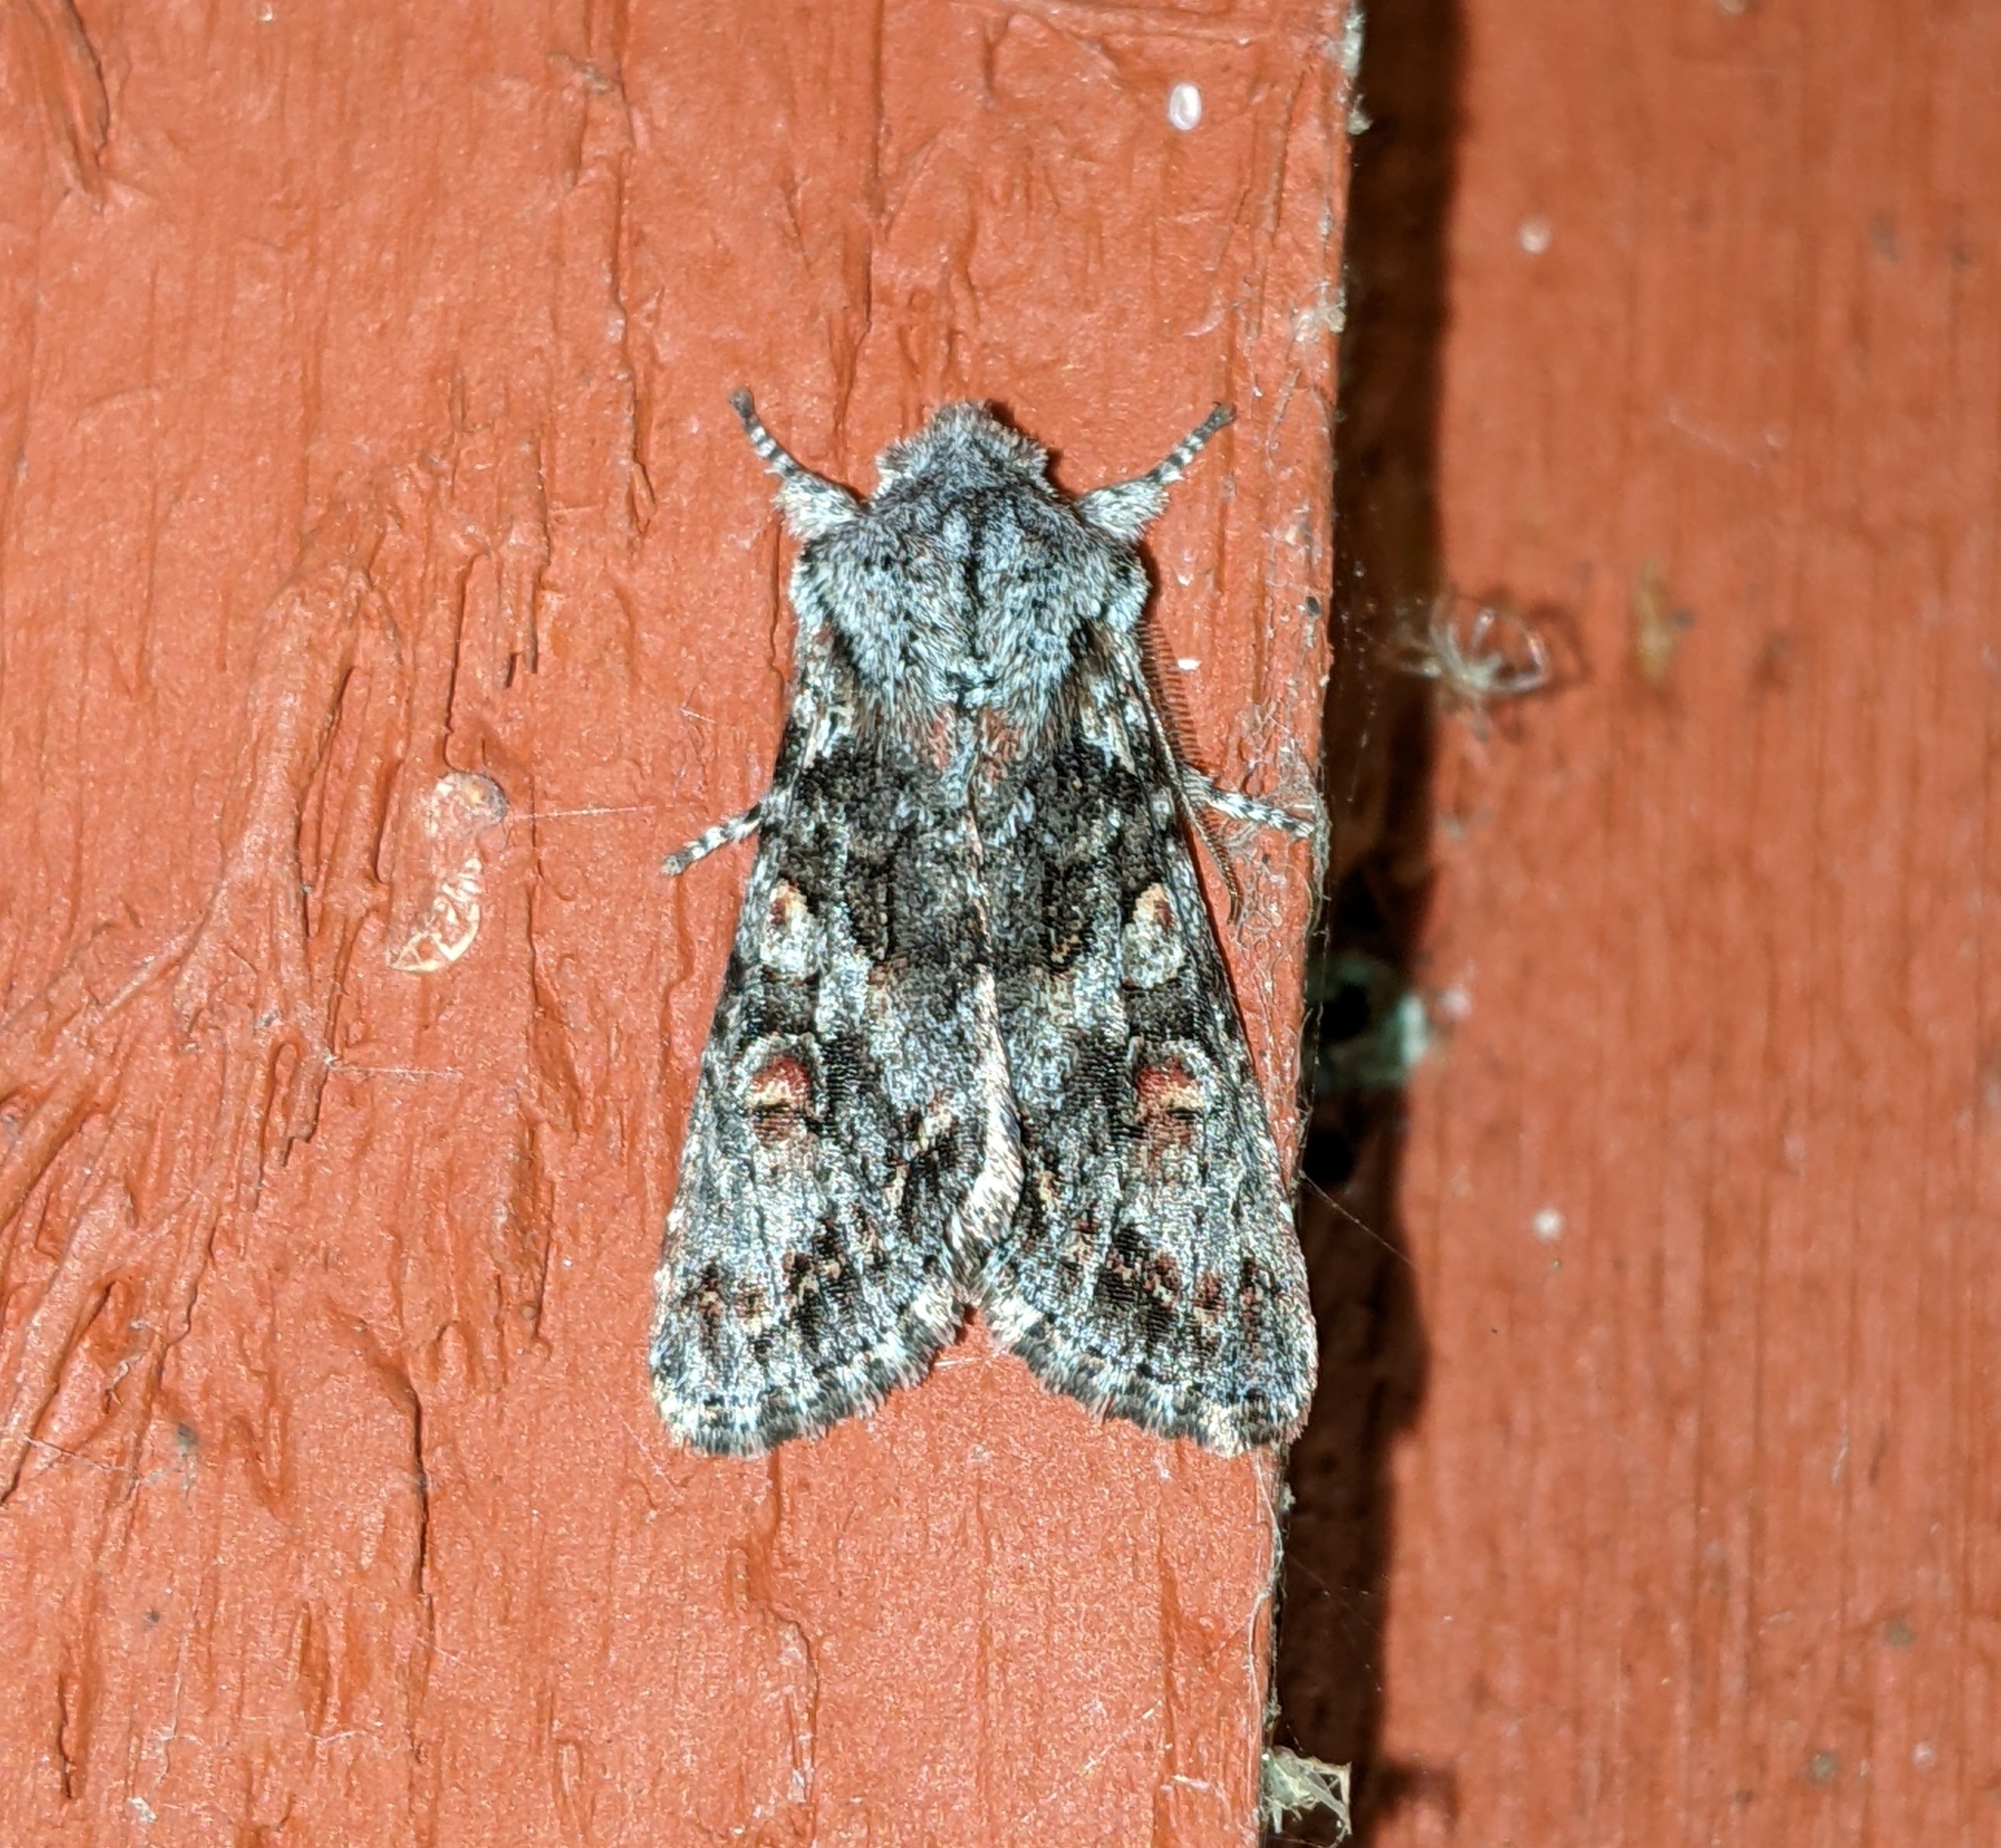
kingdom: Animalia
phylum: Arthropoda
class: Insecta
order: Lepidoptera
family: Noctuidae
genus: Egira
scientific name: Egira hiemalis
